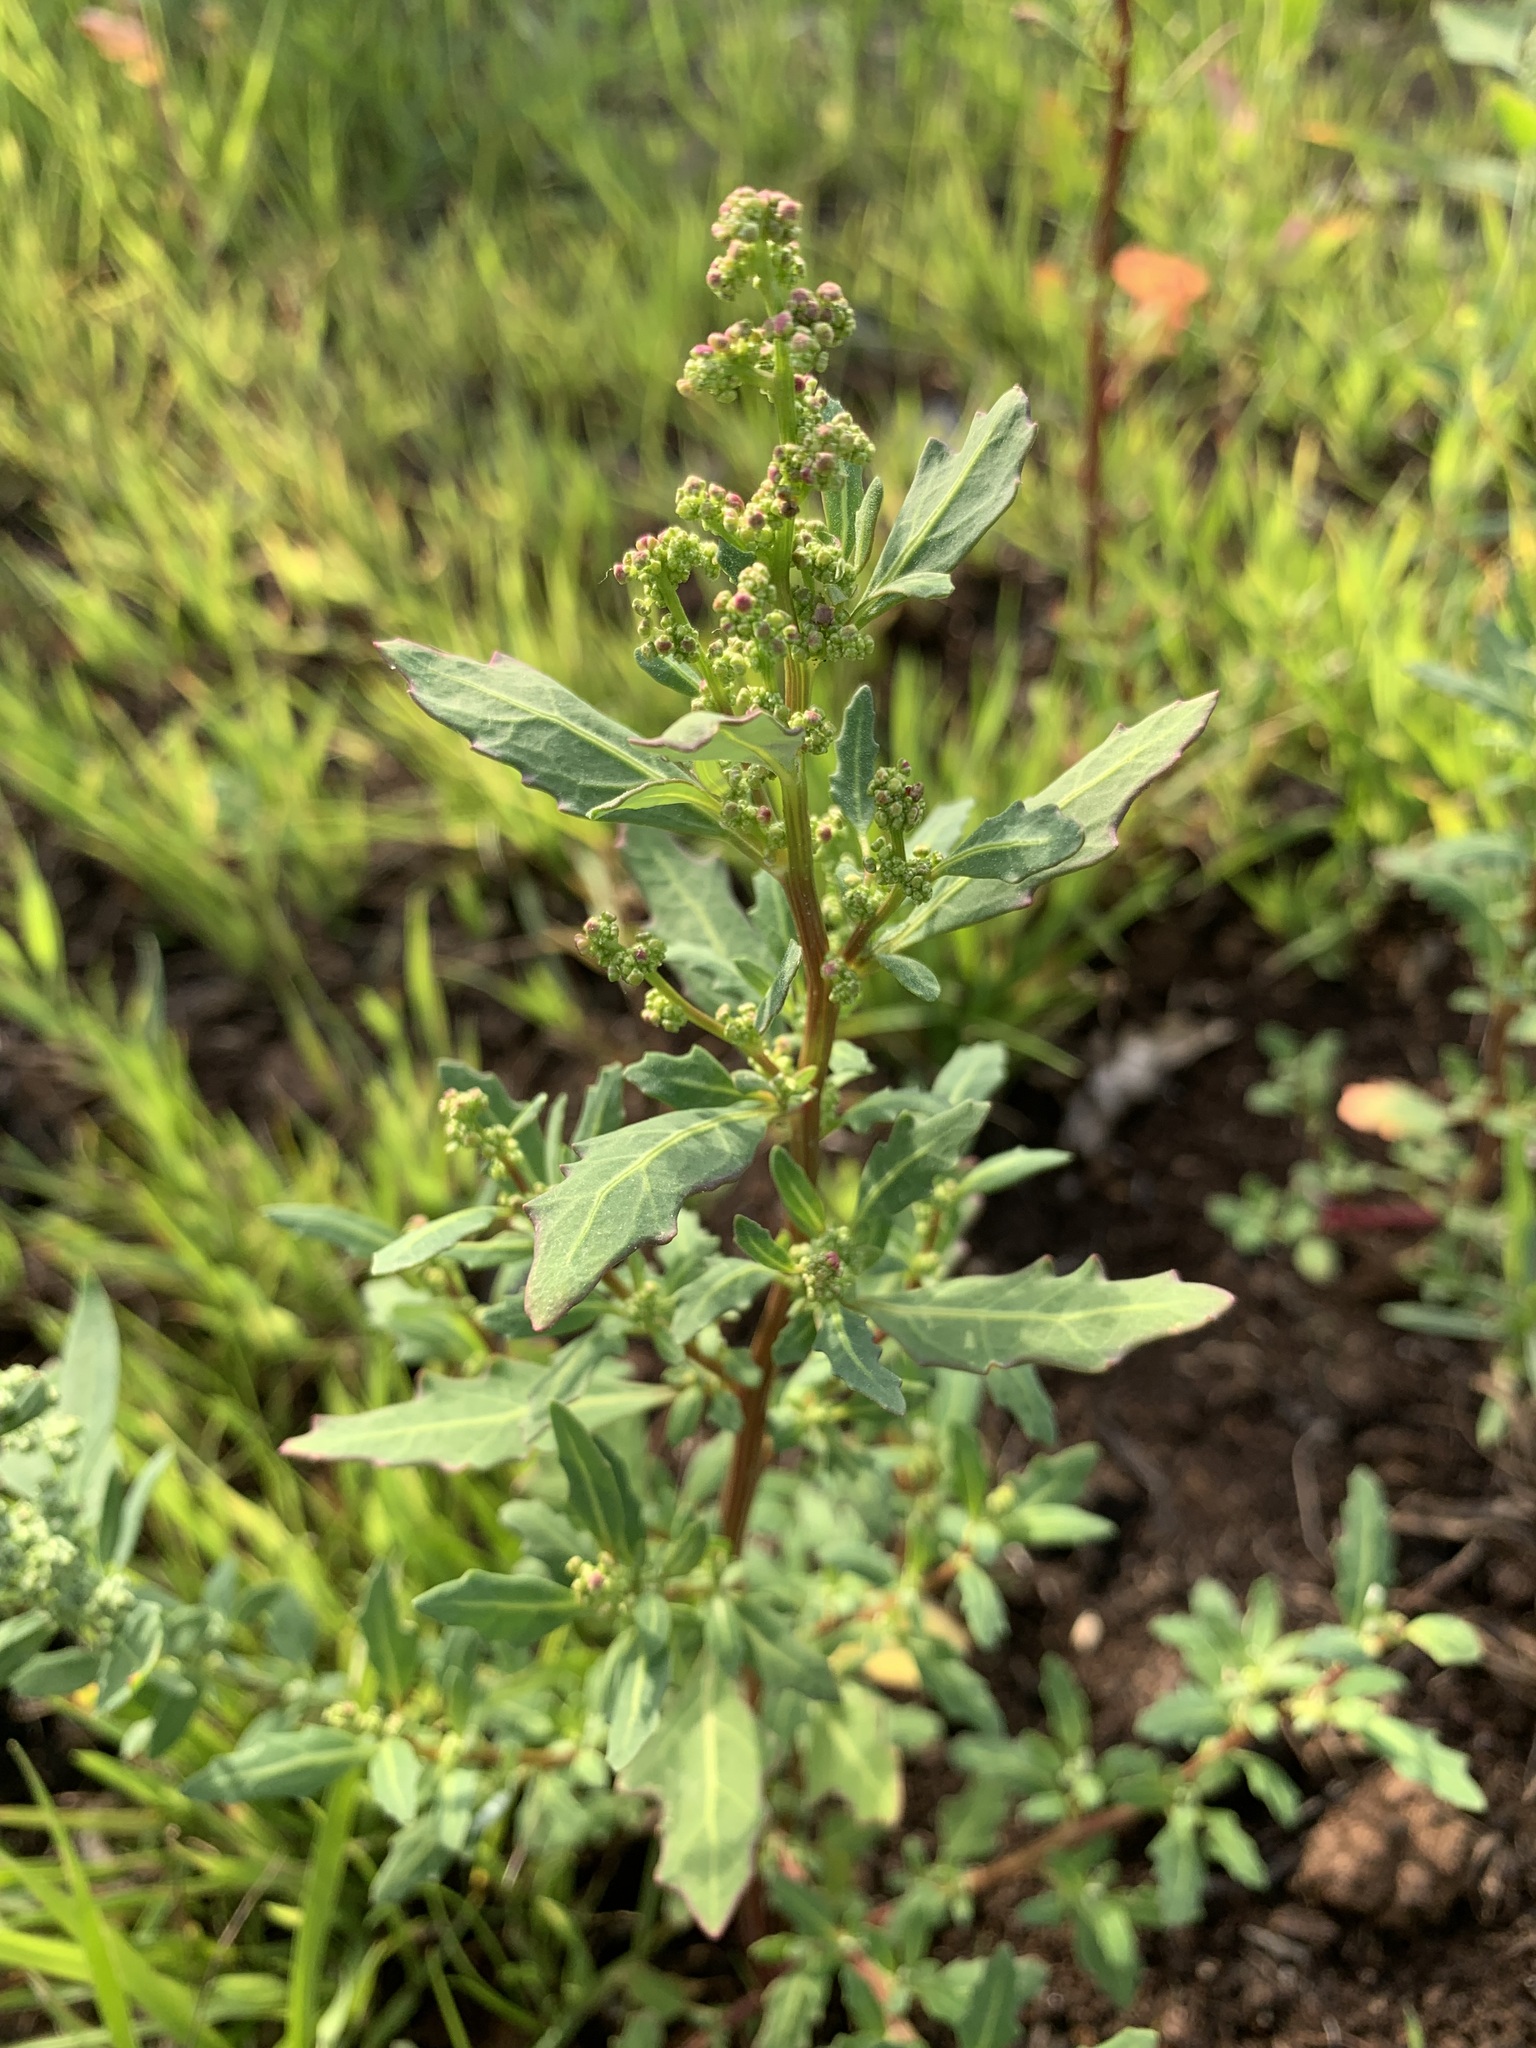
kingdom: Plantae
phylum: Tracheophyta
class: Magnoliopsida
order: Caryophyllales
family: Amaranthaceae
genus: Oxybasis
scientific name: Oxybasis glauca
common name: Glaucous goosefoot
